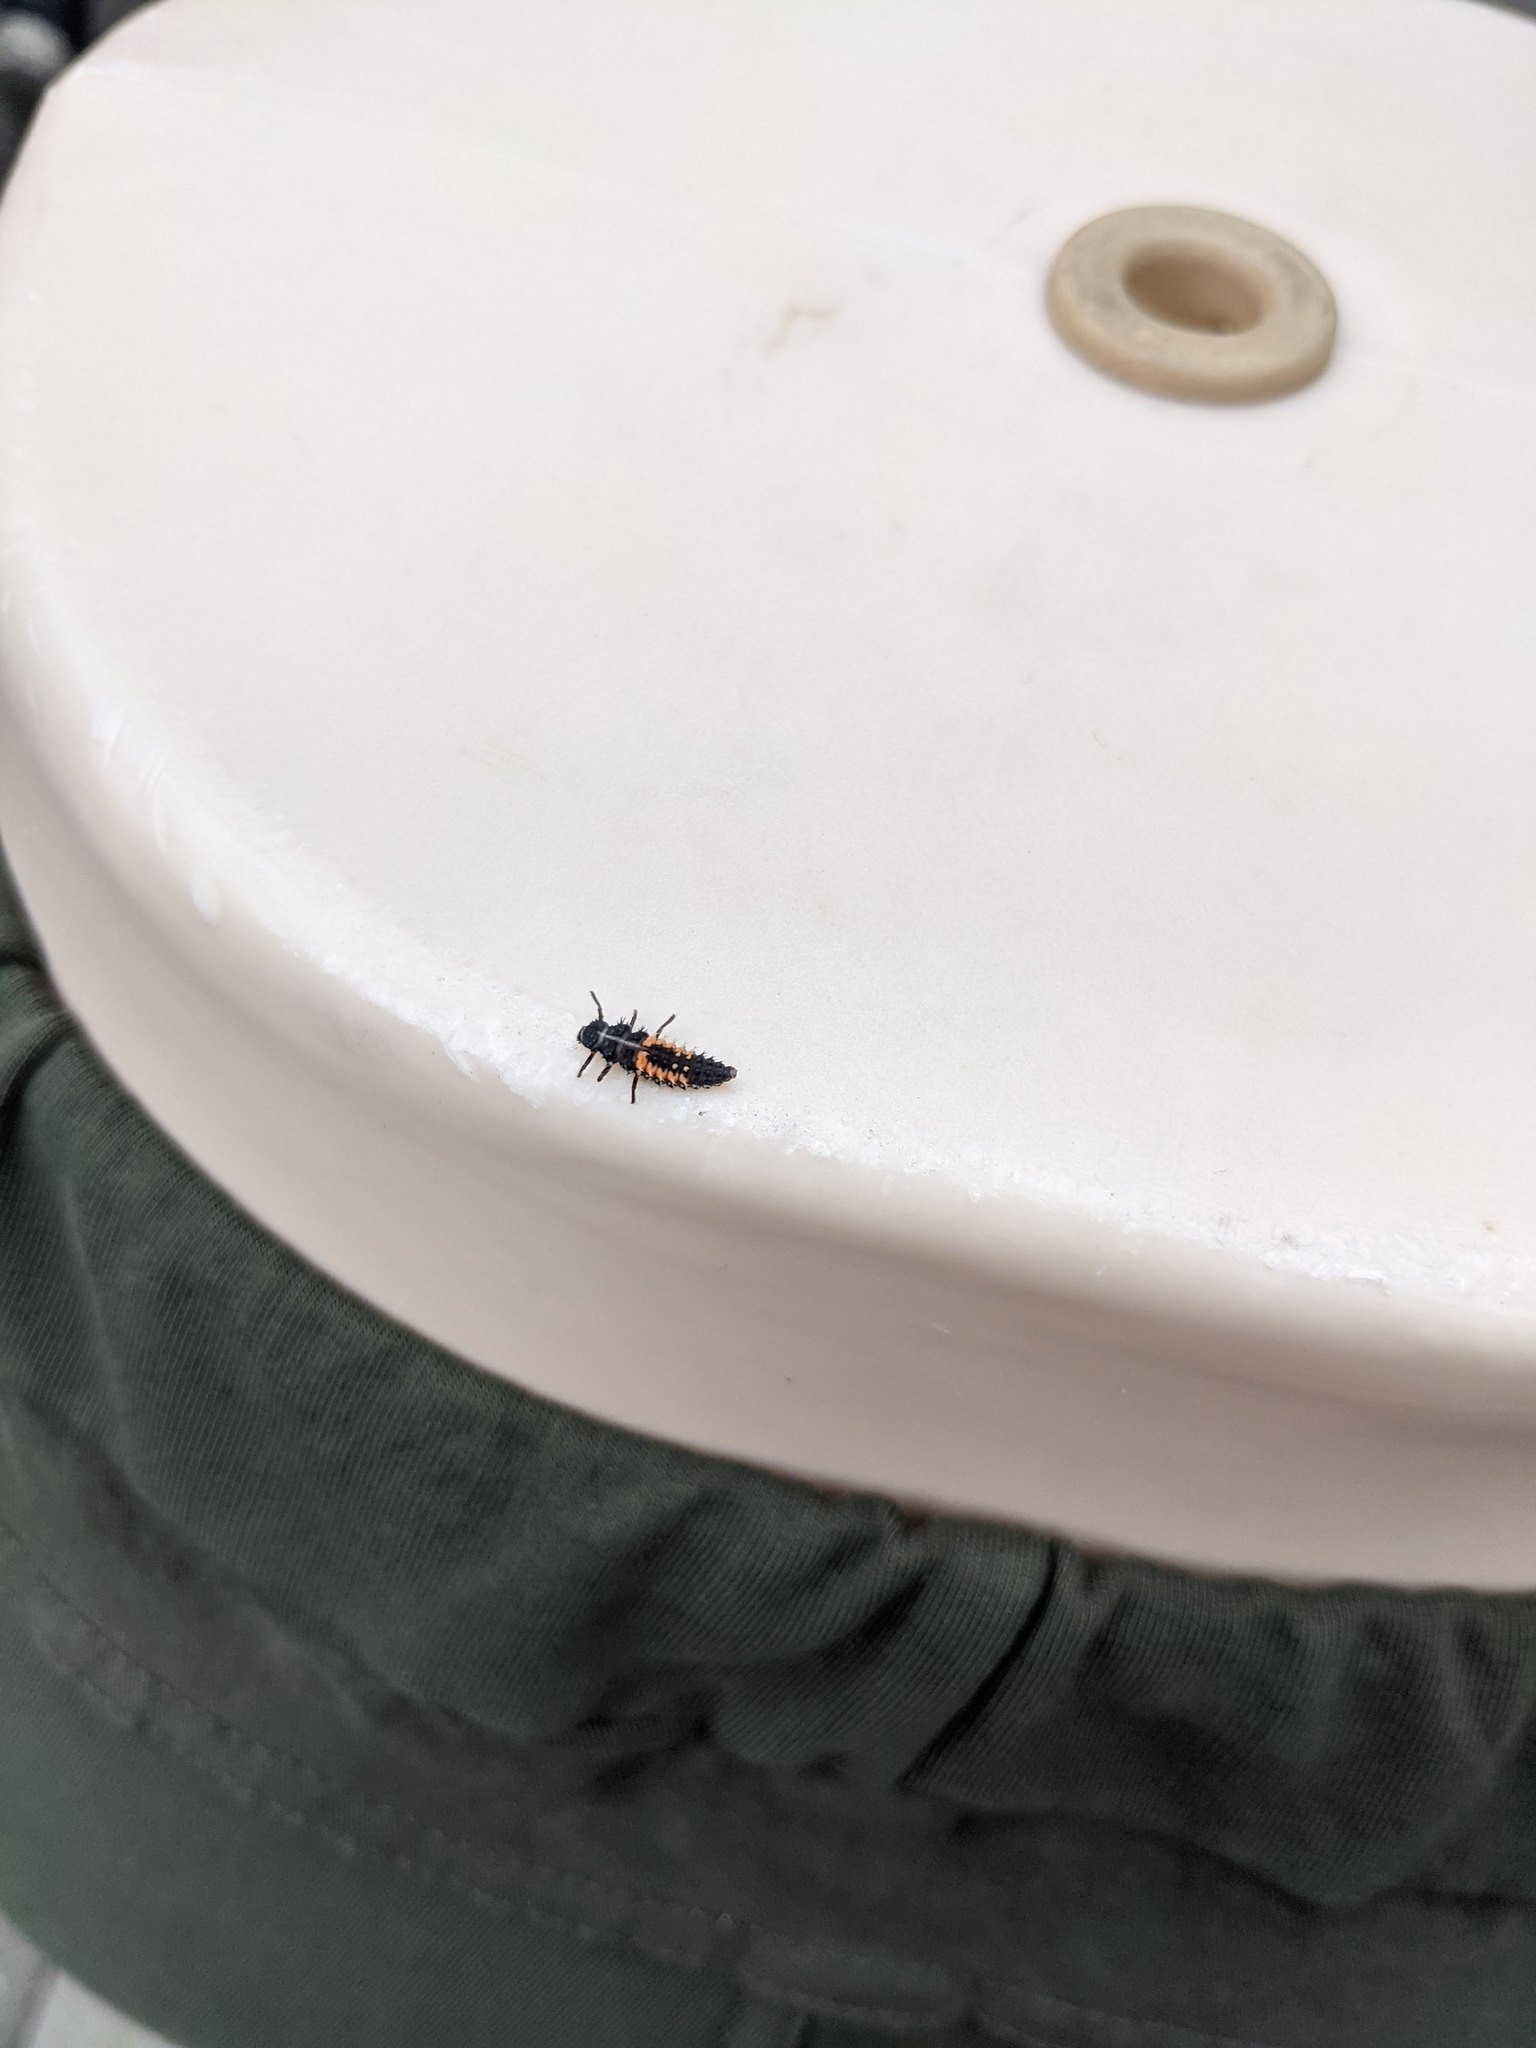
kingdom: Animalia
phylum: Arthropoda
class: Insecta
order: Coleoptera
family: Coccinellidae
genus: Harmonia
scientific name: Harmonia axyridis
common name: Harlequin ladybird
